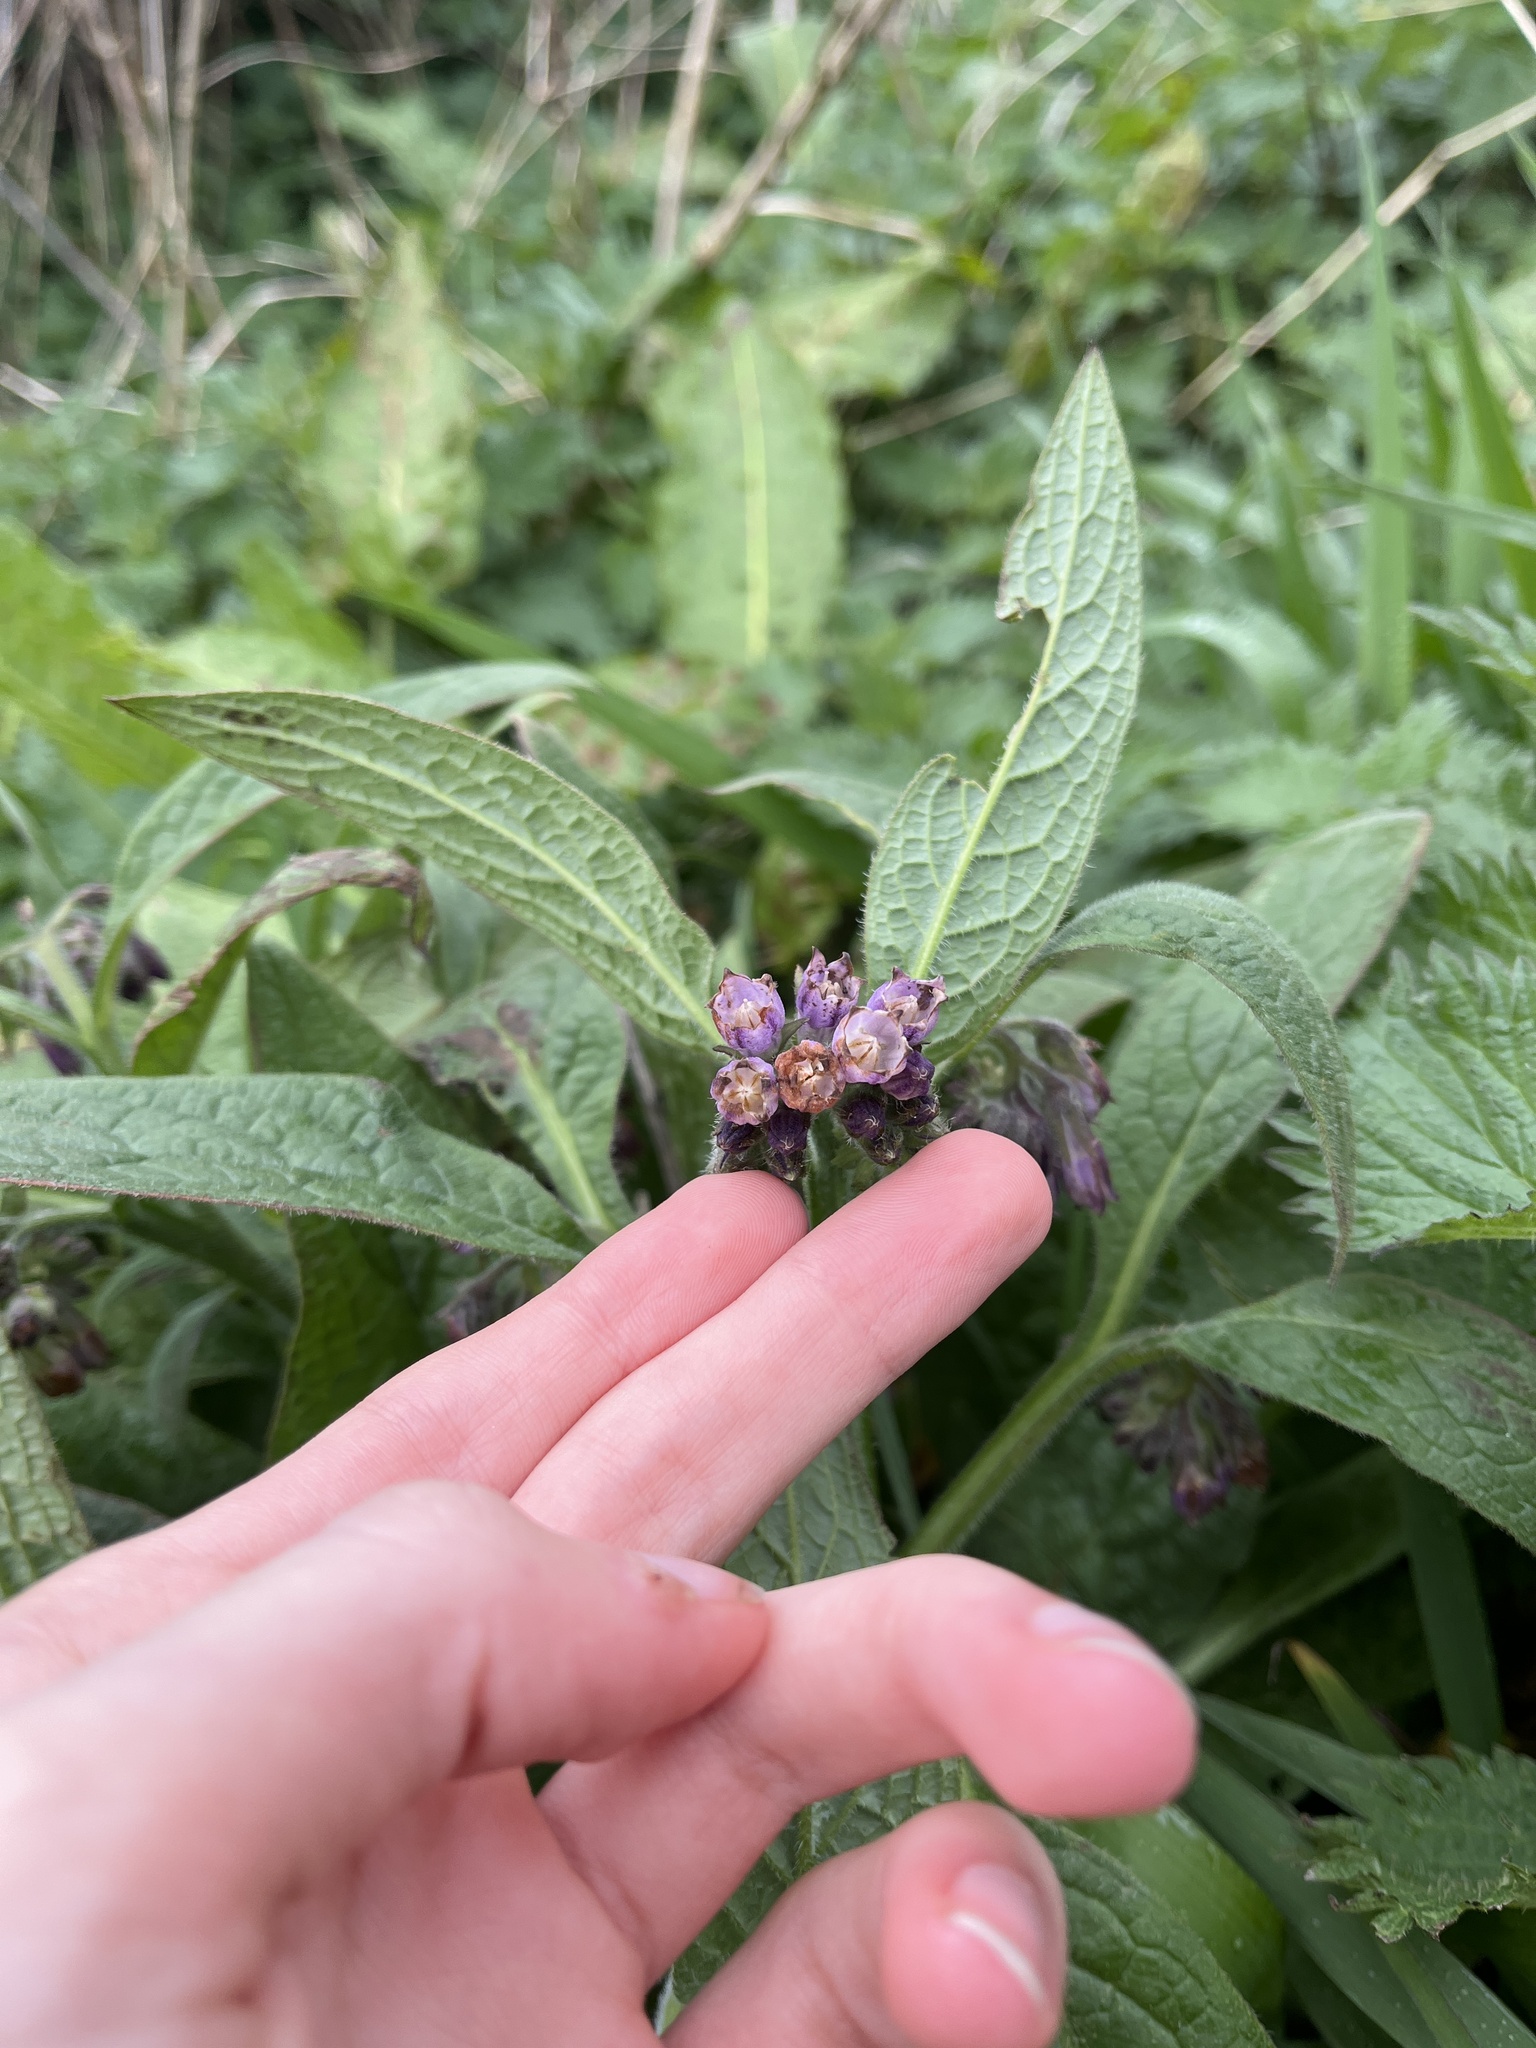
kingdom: Plantae
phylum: Tracheophyta
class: Magnoliopsida
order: Boraginales
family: Boraginaceae
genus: Symphytum
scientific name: Symphytum uplandicum
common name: Russian comfrey
